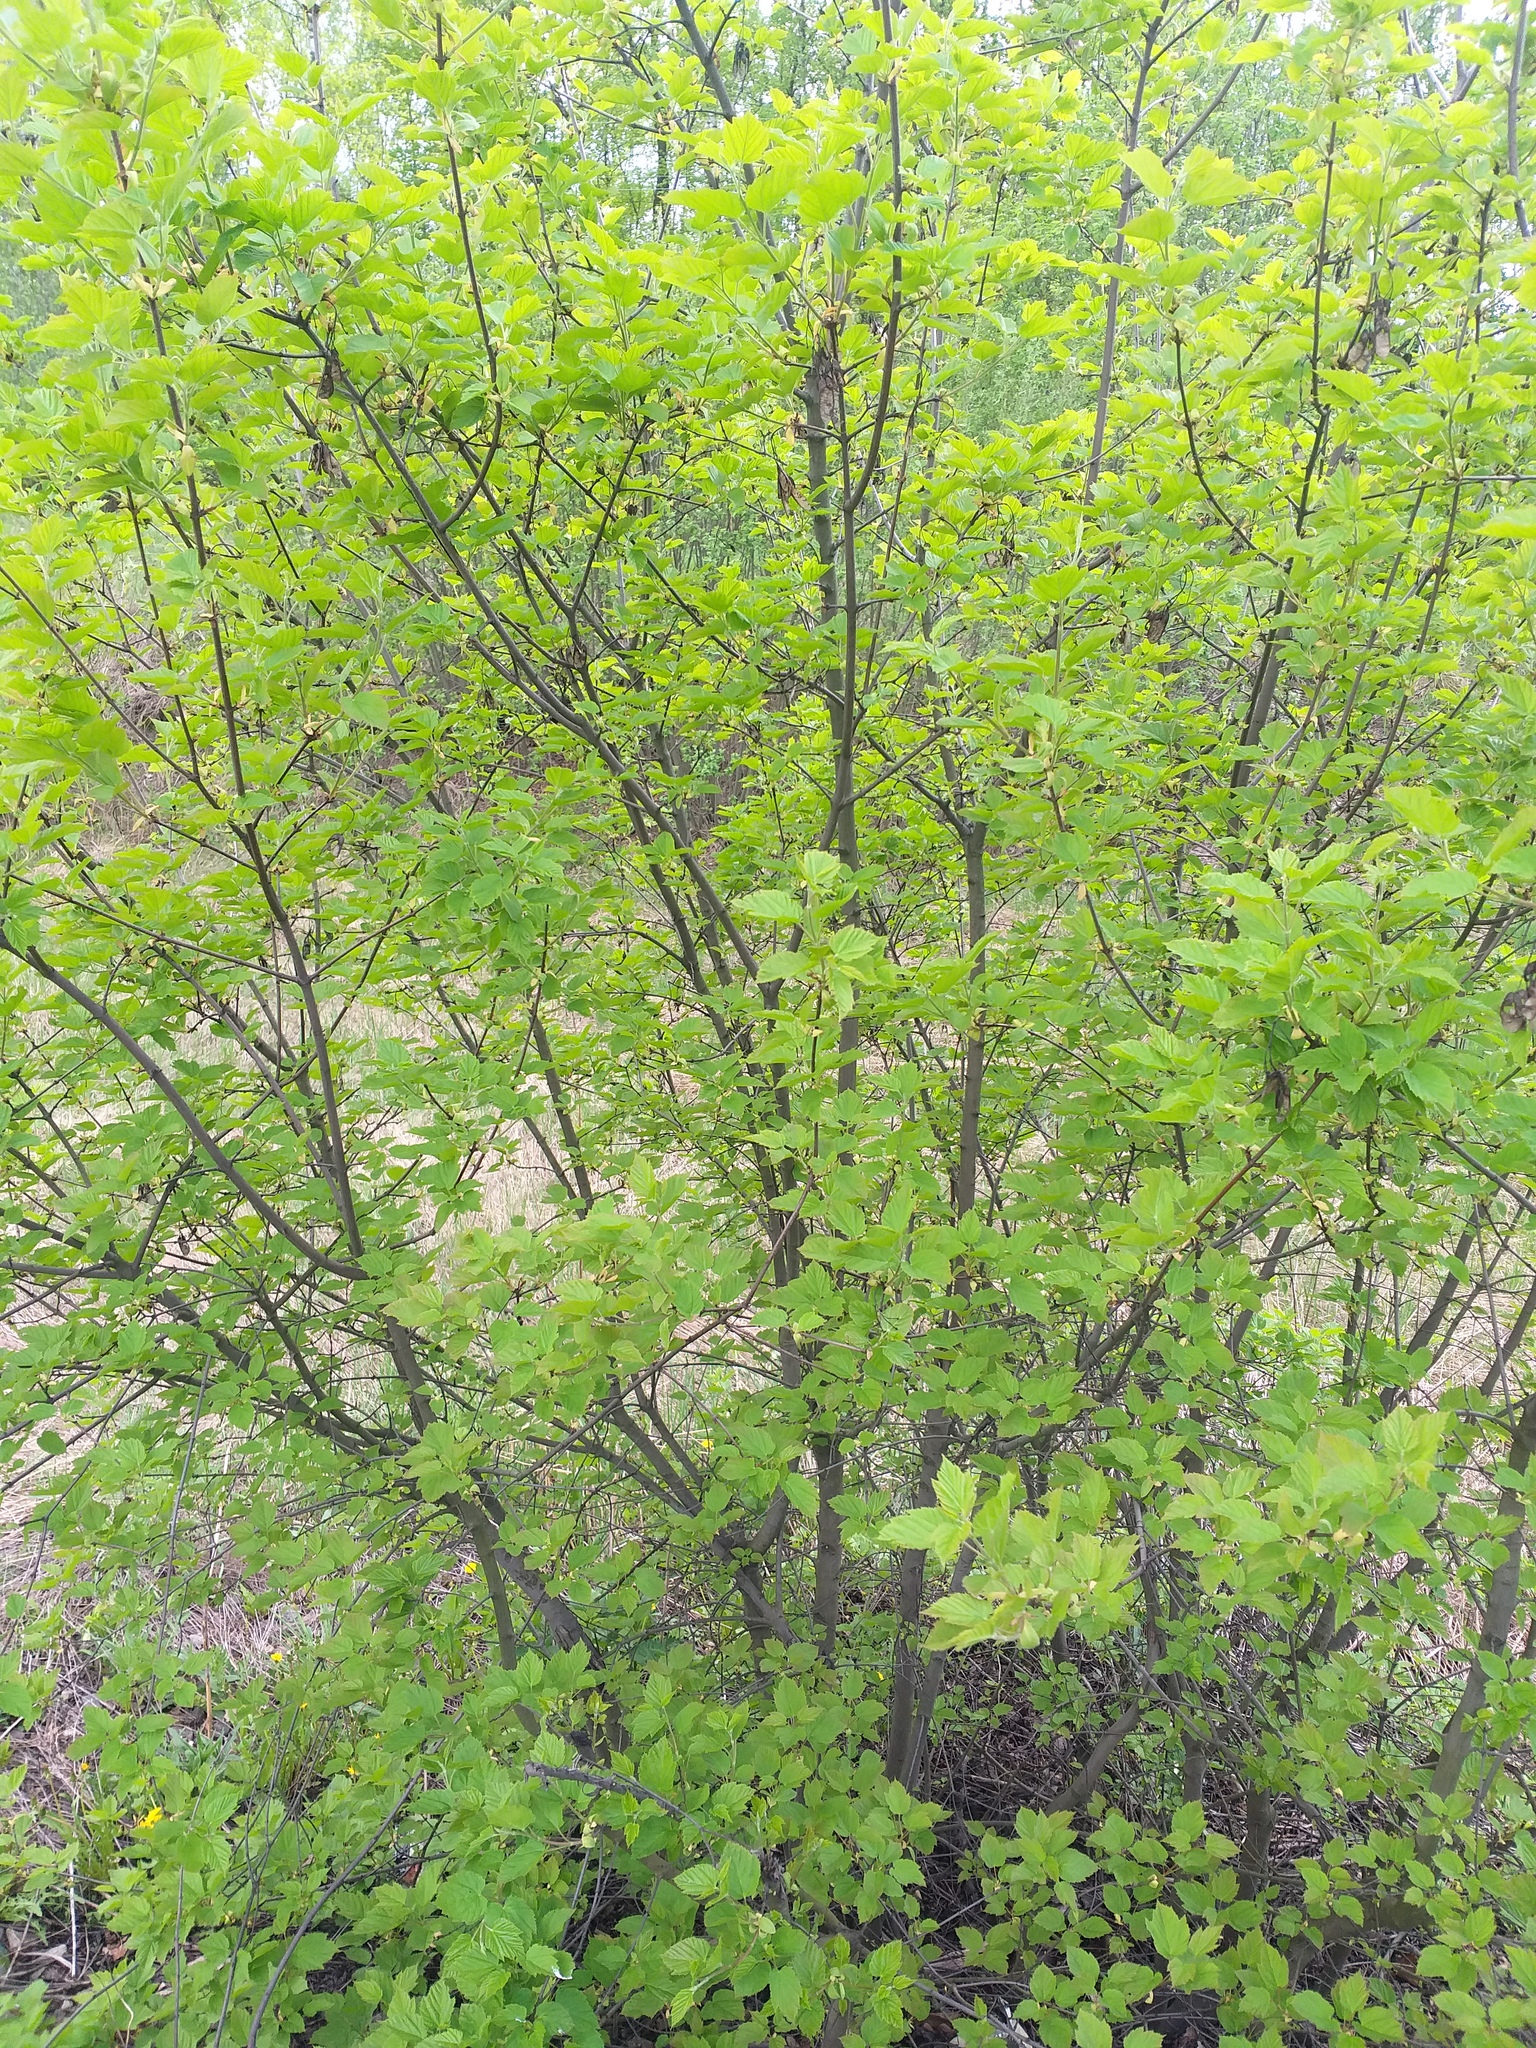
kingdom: Plantae
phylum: Tracheophyta
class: Magnoliopsida
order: Sapindales
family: Sapindaceae
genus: Acer
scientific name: Acer tataricum
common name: Tartar maple
